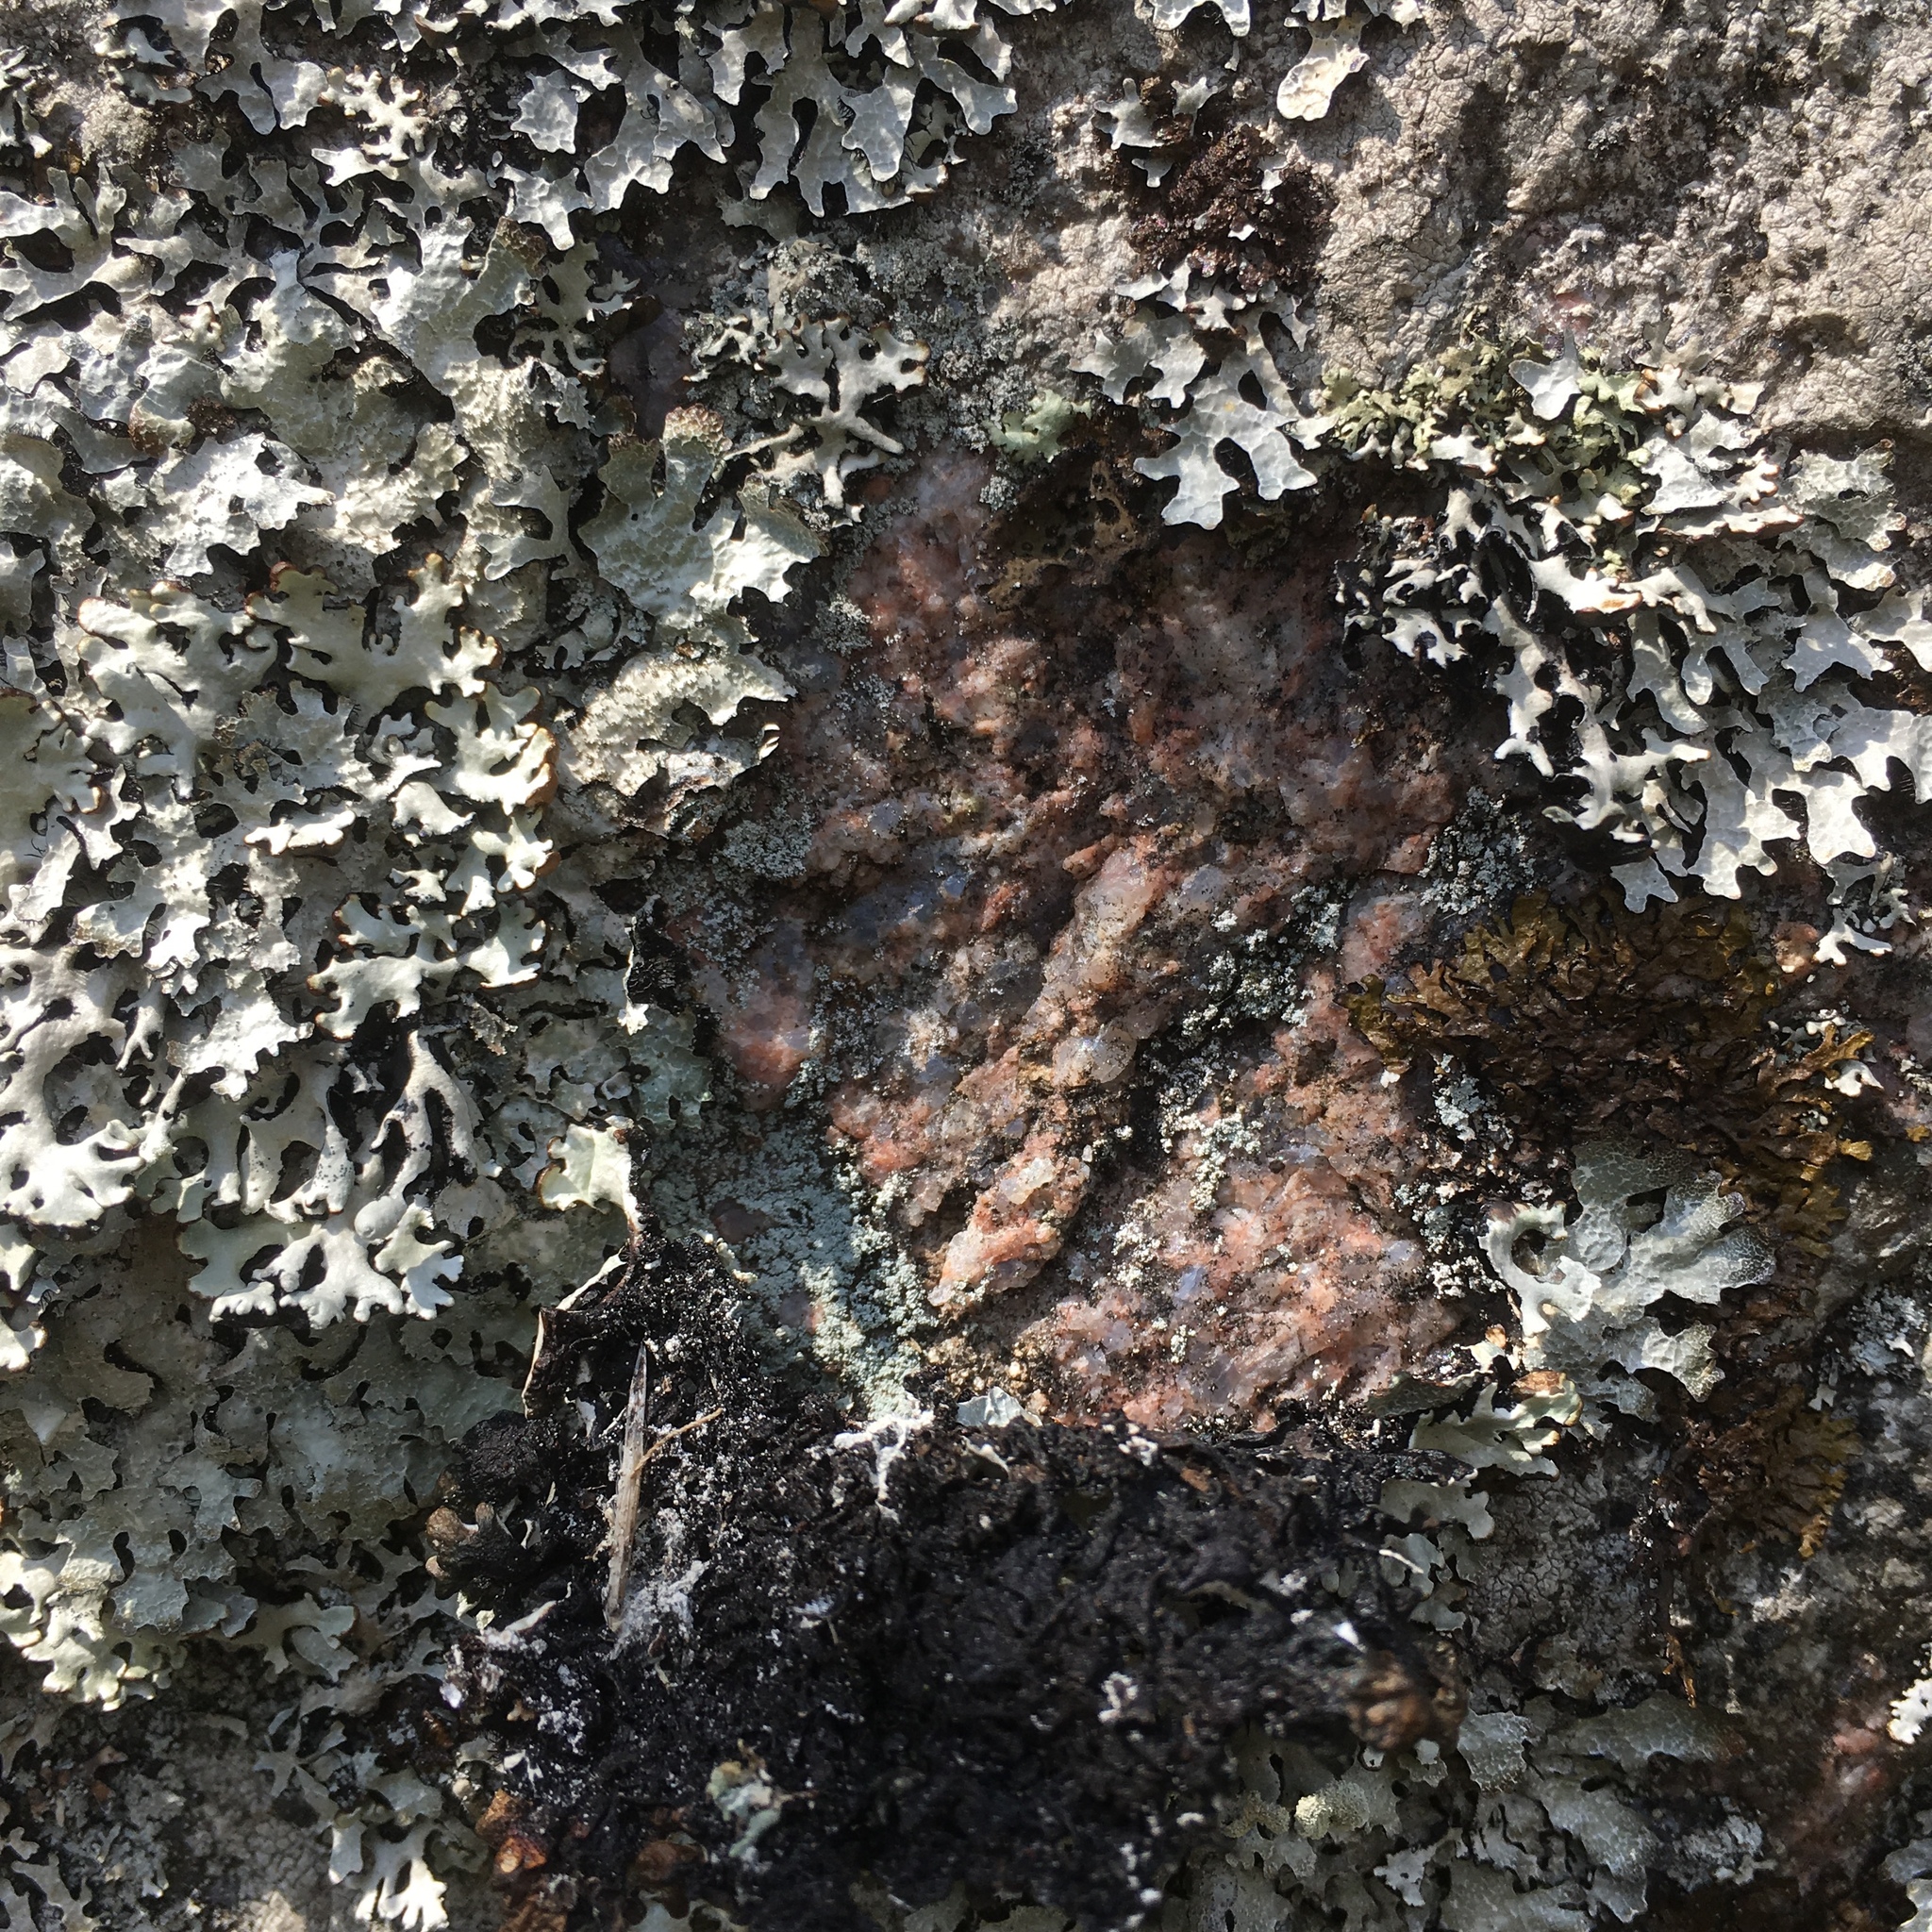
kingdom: Fungi
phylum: Ascomycota
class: Lecanoromycetes
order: Lecanorales
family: Parmeliaceae
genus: Hypogymnia
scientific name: Hypogymnia physodes
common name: Dark crottle
